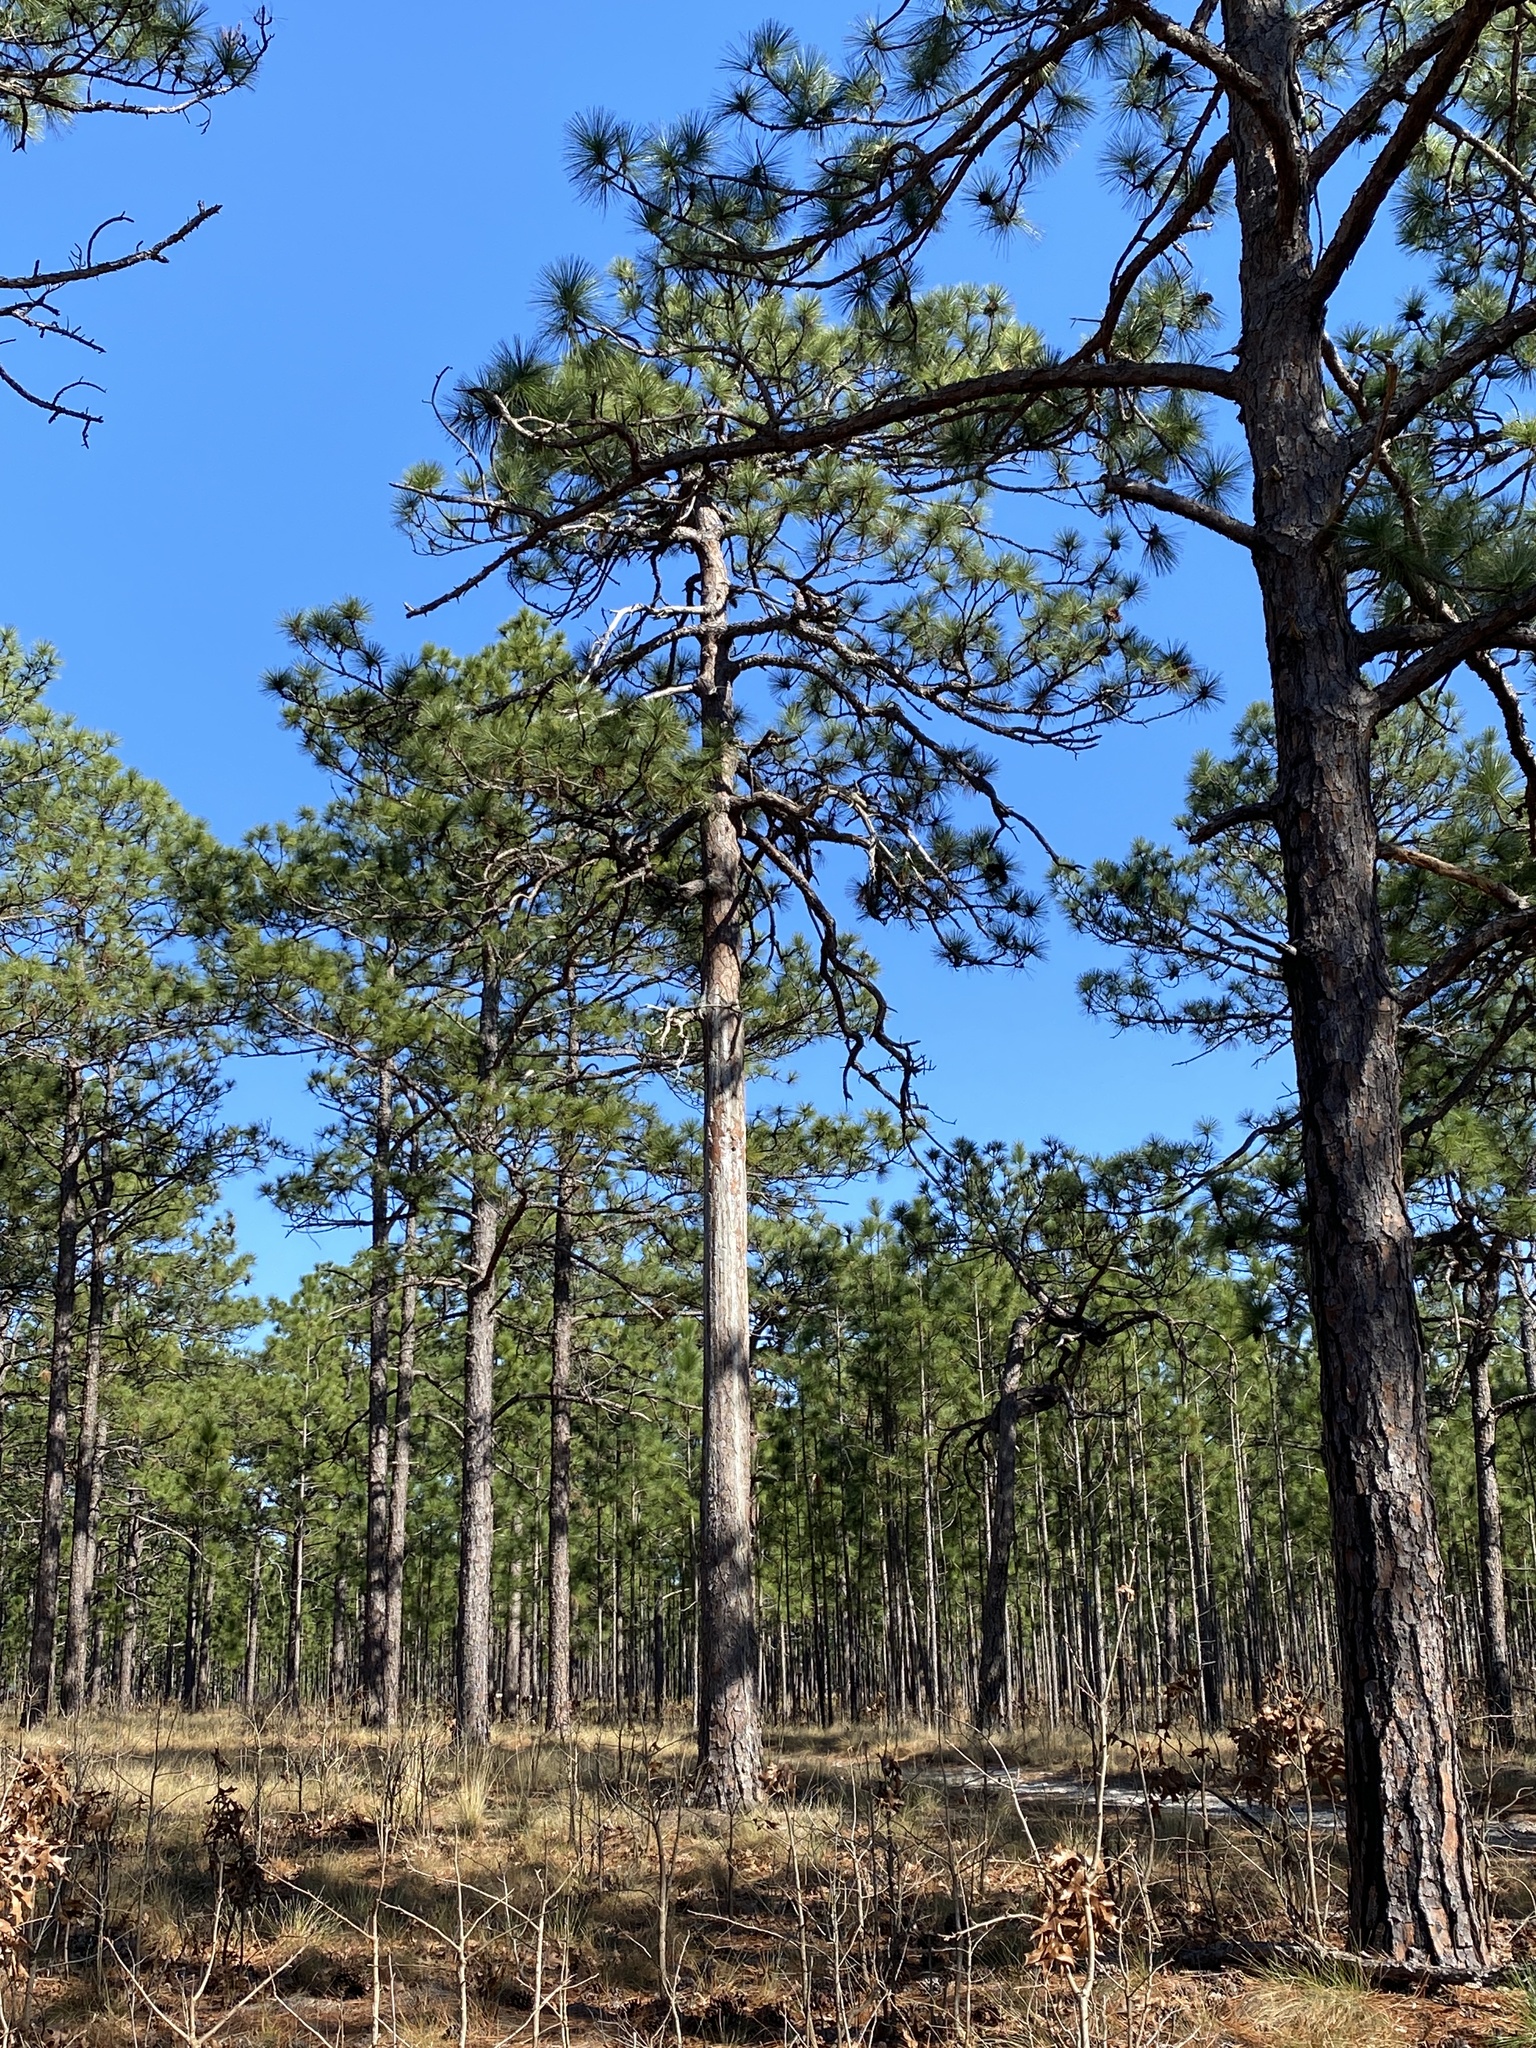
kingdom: Animalia
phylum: Chordata
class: Aves
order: Piciformes
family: Picidae
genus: Leuconotopicus
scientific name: Leuconotopicus borealis
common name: Red-cockaded woodpecker
